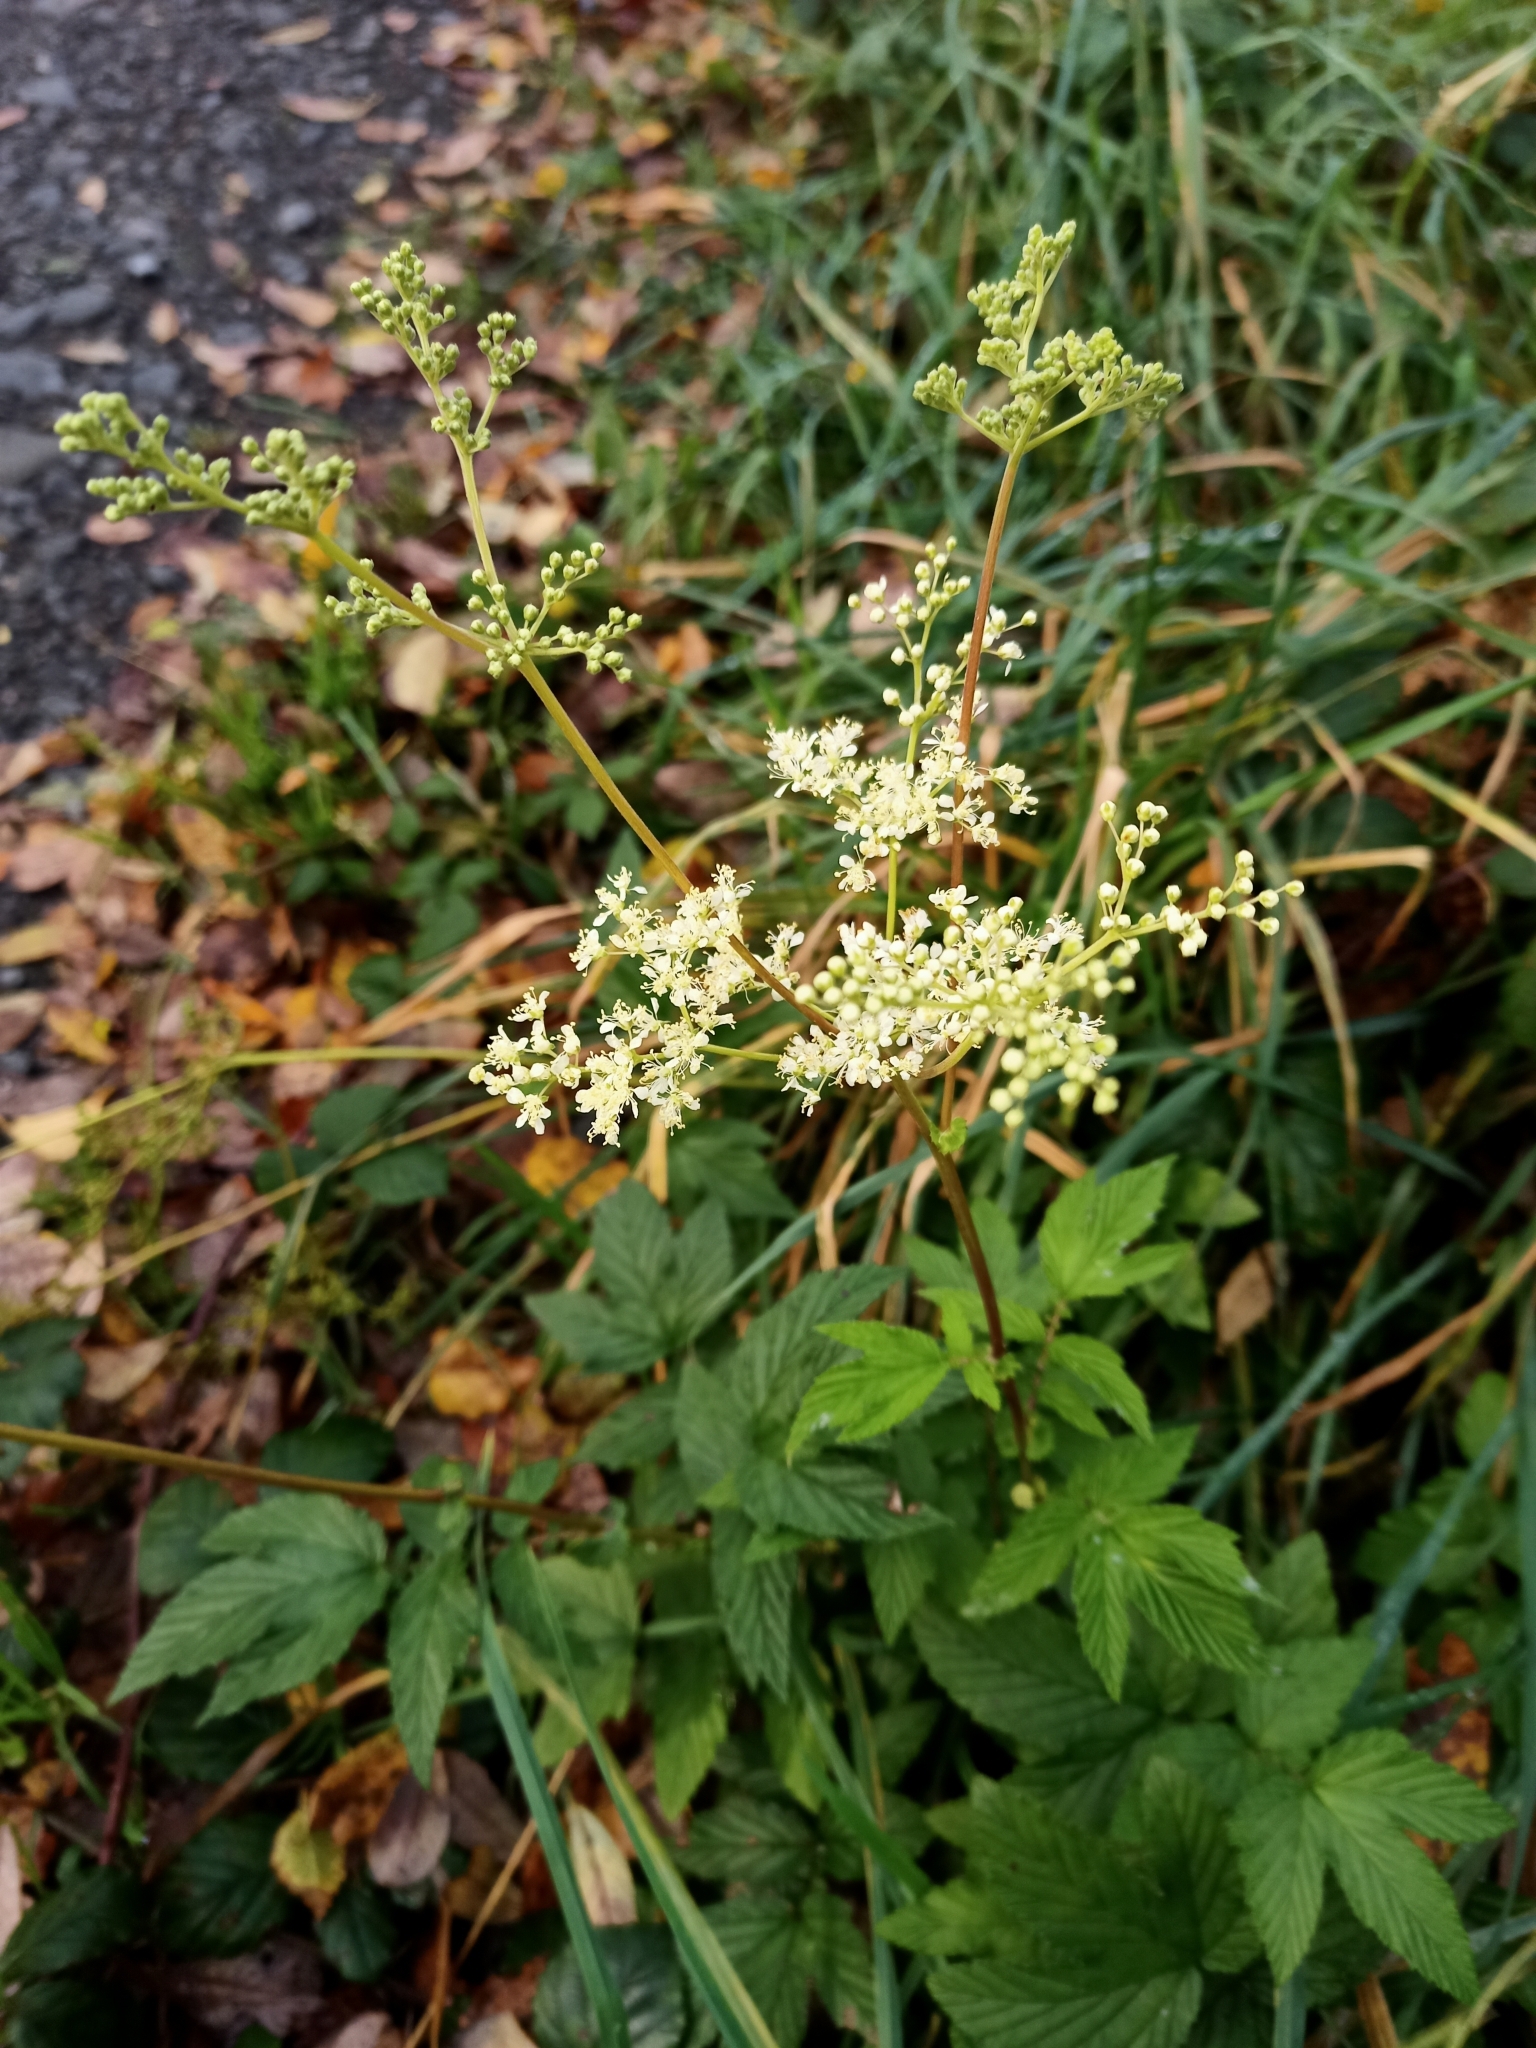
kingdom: Plantae
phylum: Tracheophyta
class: Magnoliopsida
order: Rosales
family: Rosaceae
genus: Filipendula
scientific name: Filipendula ulmaria
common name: Meadowsweet
